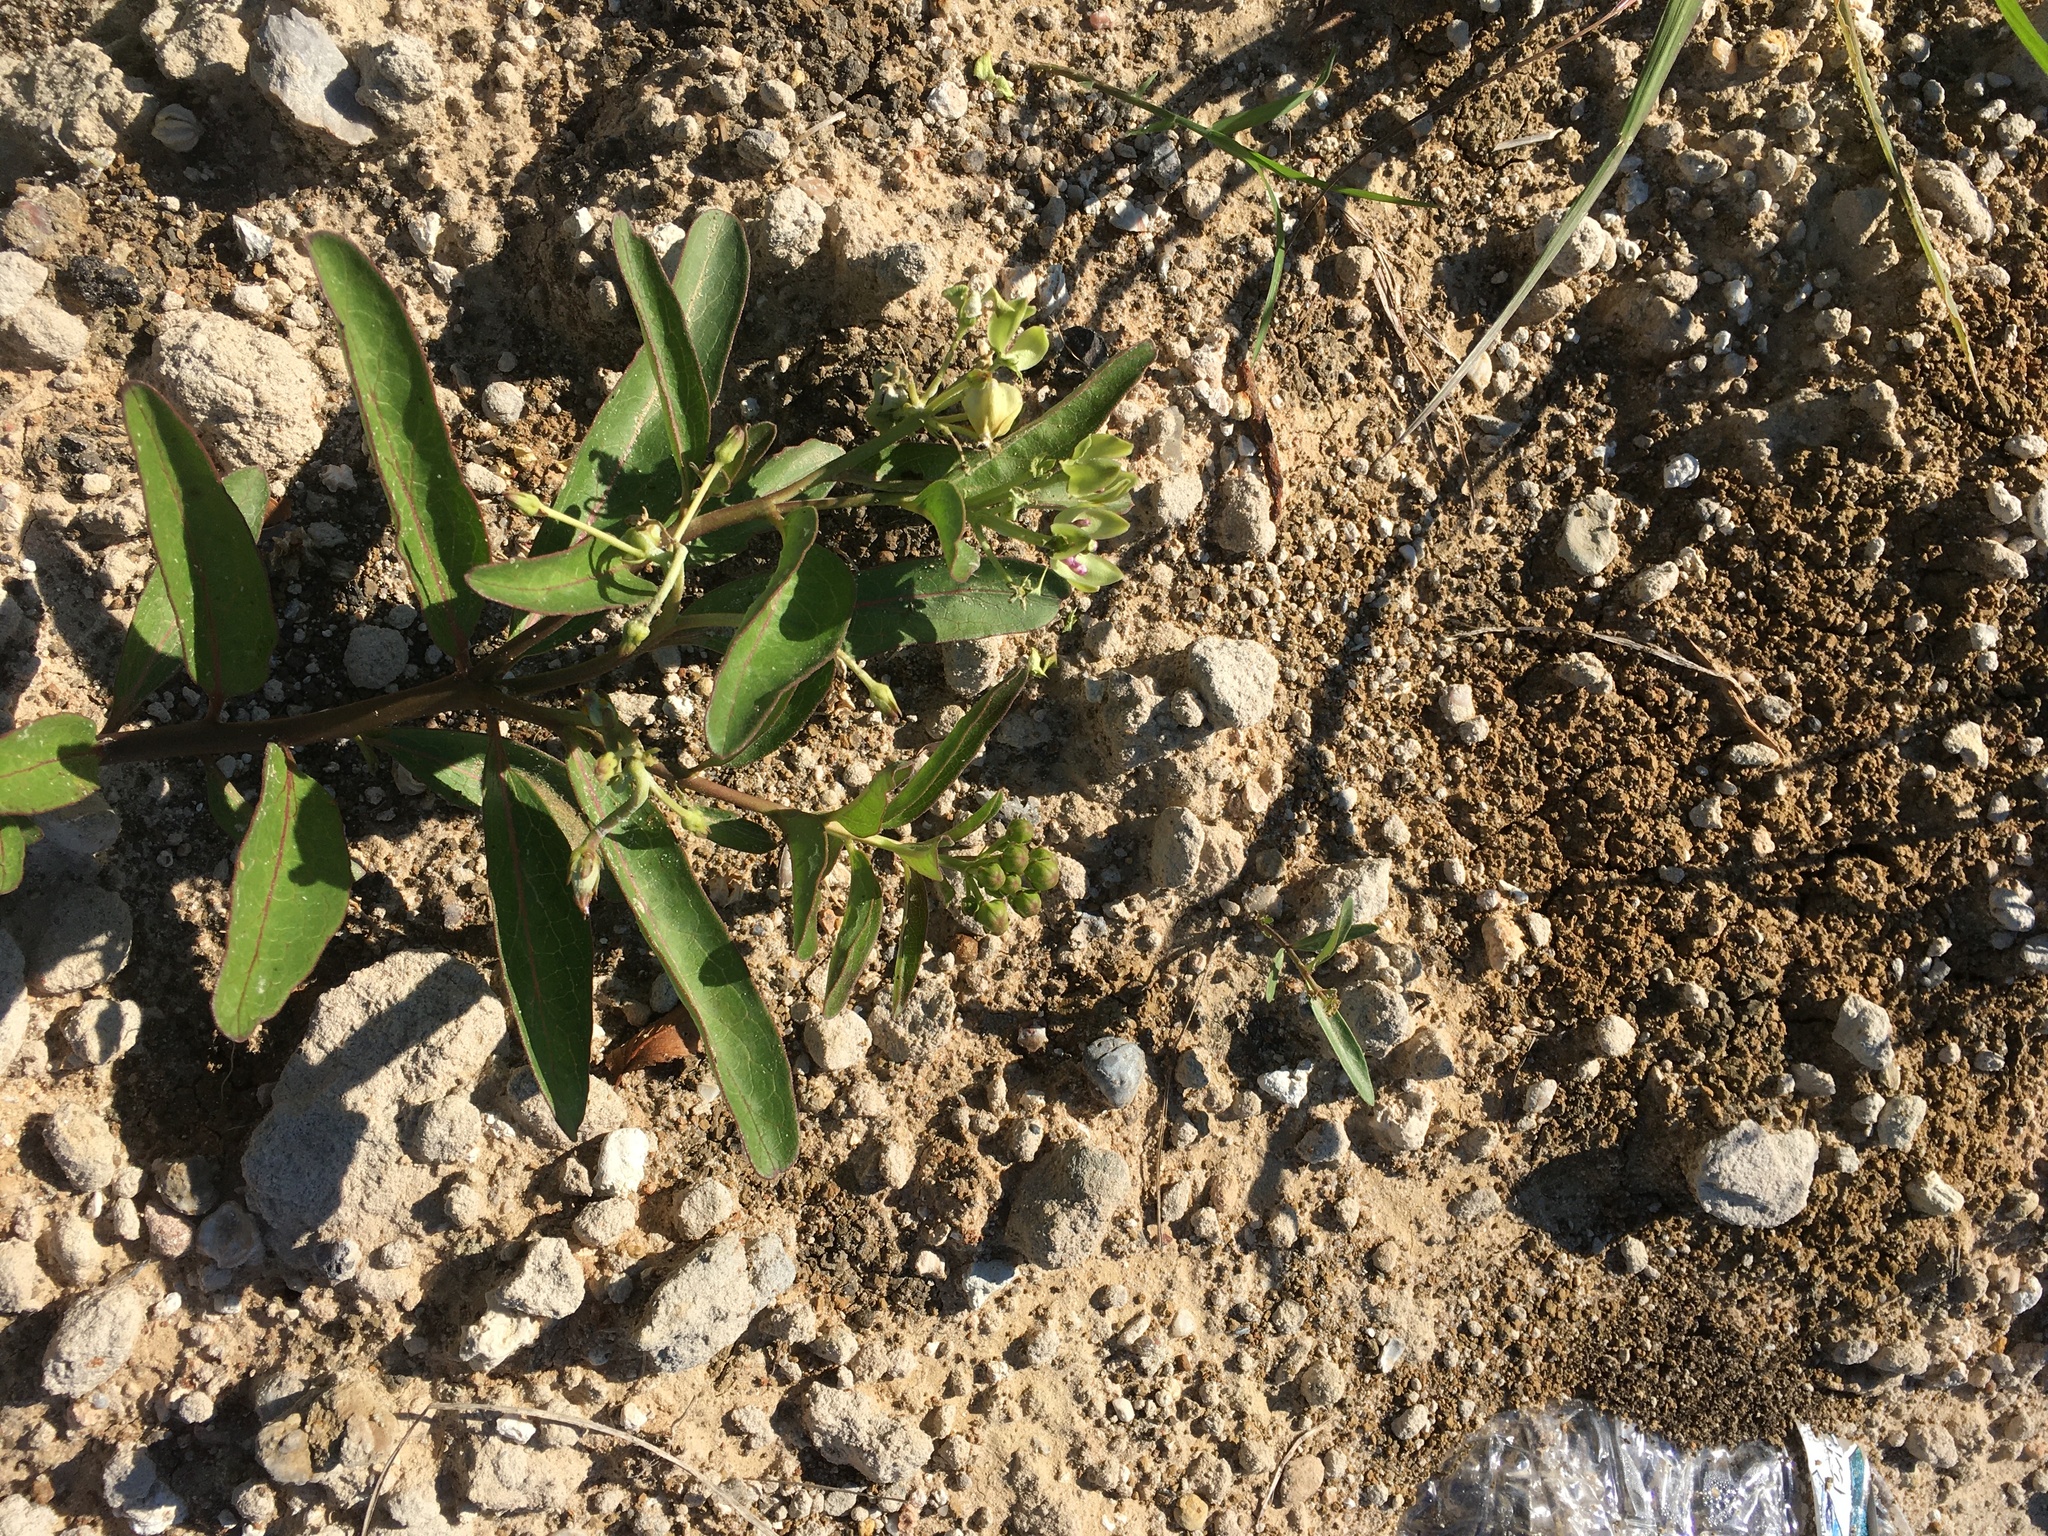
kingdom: Plantae
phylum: Tracheophyta
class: Magnoliopsida
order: Gentianales
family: Apocynaceae
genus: Asclepias
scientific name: Asclepias viridis
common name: Antelope-horns
